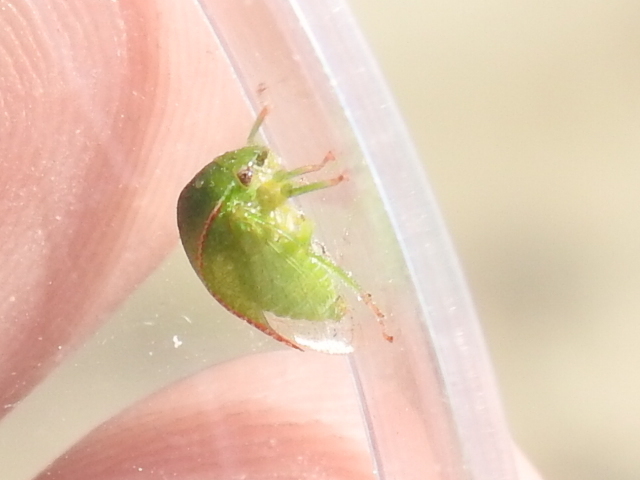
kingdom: Animalia
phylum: Arthropoda
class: Insecta
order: Hemiptera
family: Membracidae
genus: Spissistilus
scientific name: Spissistilus festina
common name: Membracid bug
